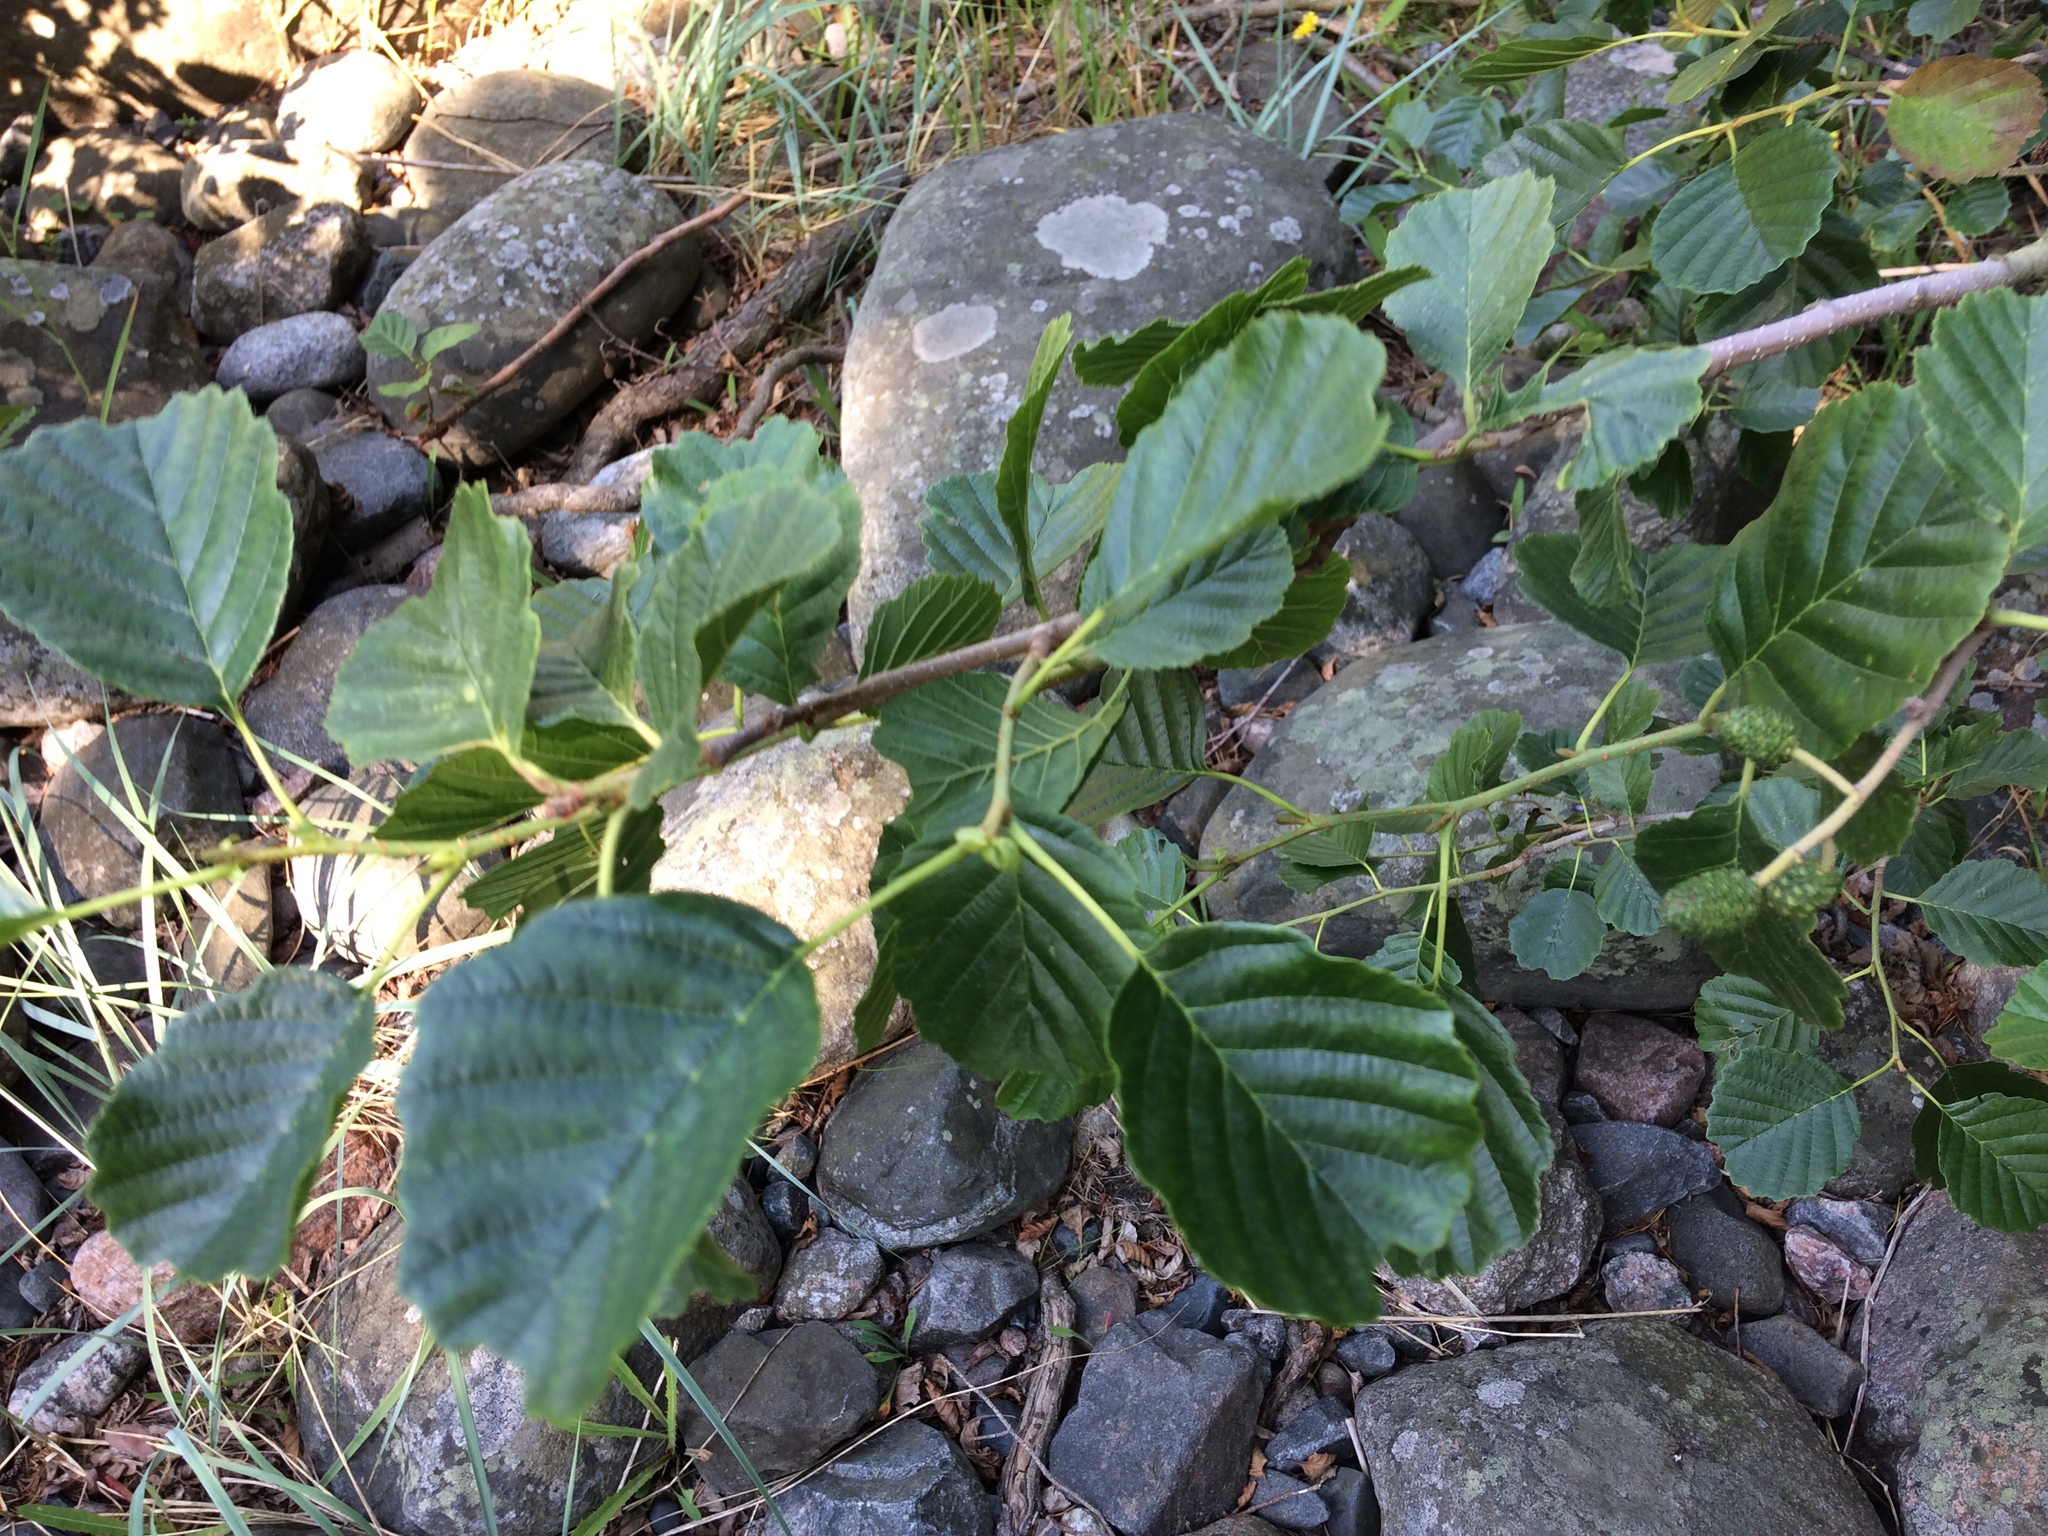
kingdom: Plantae
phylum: Tracheophyta
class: Magnoliopsida
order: Fagales
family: Betulaceae
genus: Alnus
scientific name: Alnus glutinosa
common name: Black alder
